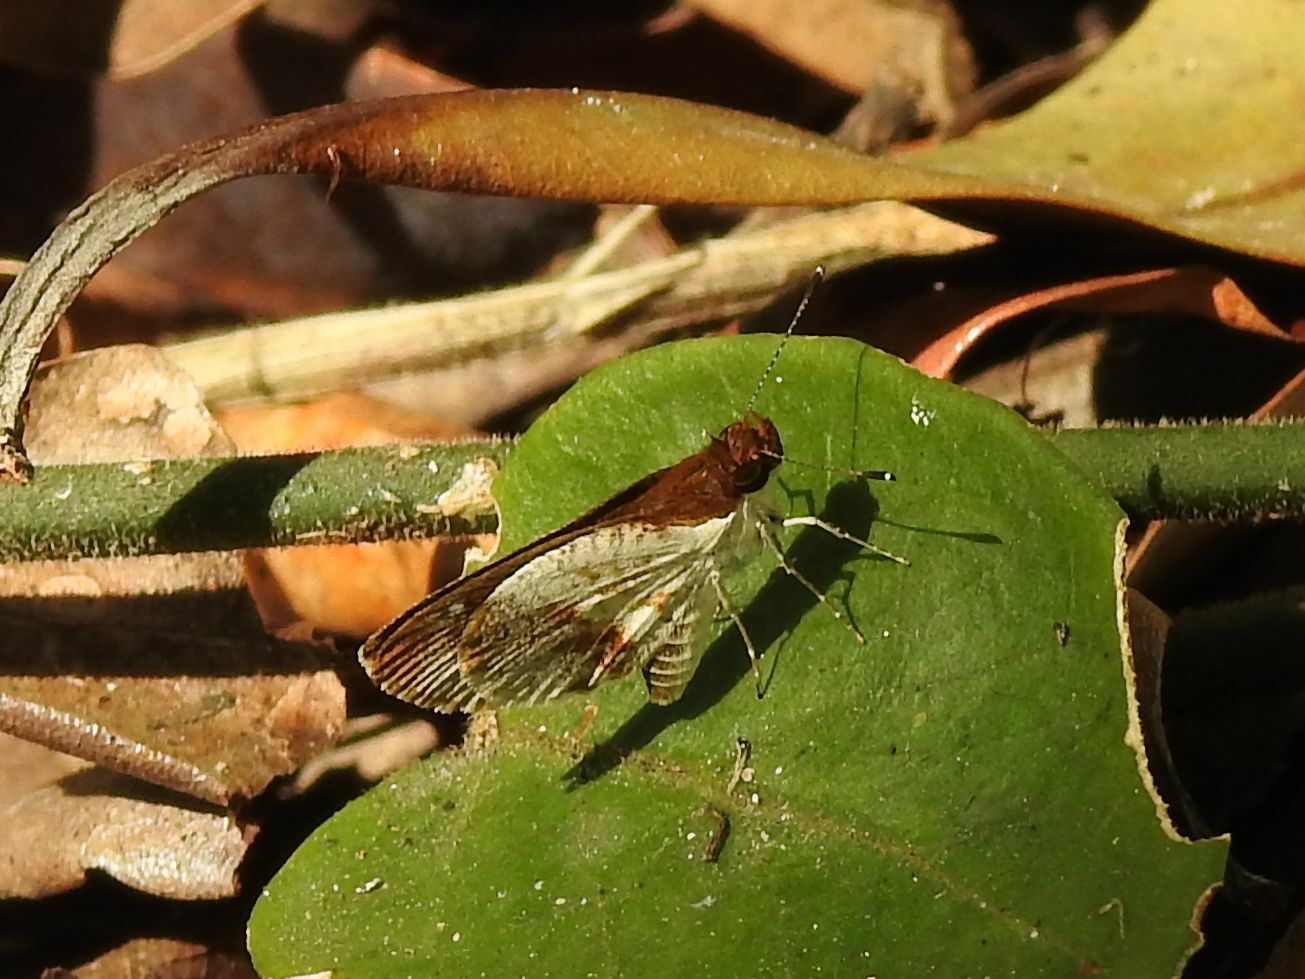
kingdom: Animalia
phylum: Arthropoda
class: Insecta
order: Lepidoptera
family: Hesperiidae
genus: Acleros
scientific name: Acleros mackenii
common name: Shade dart
